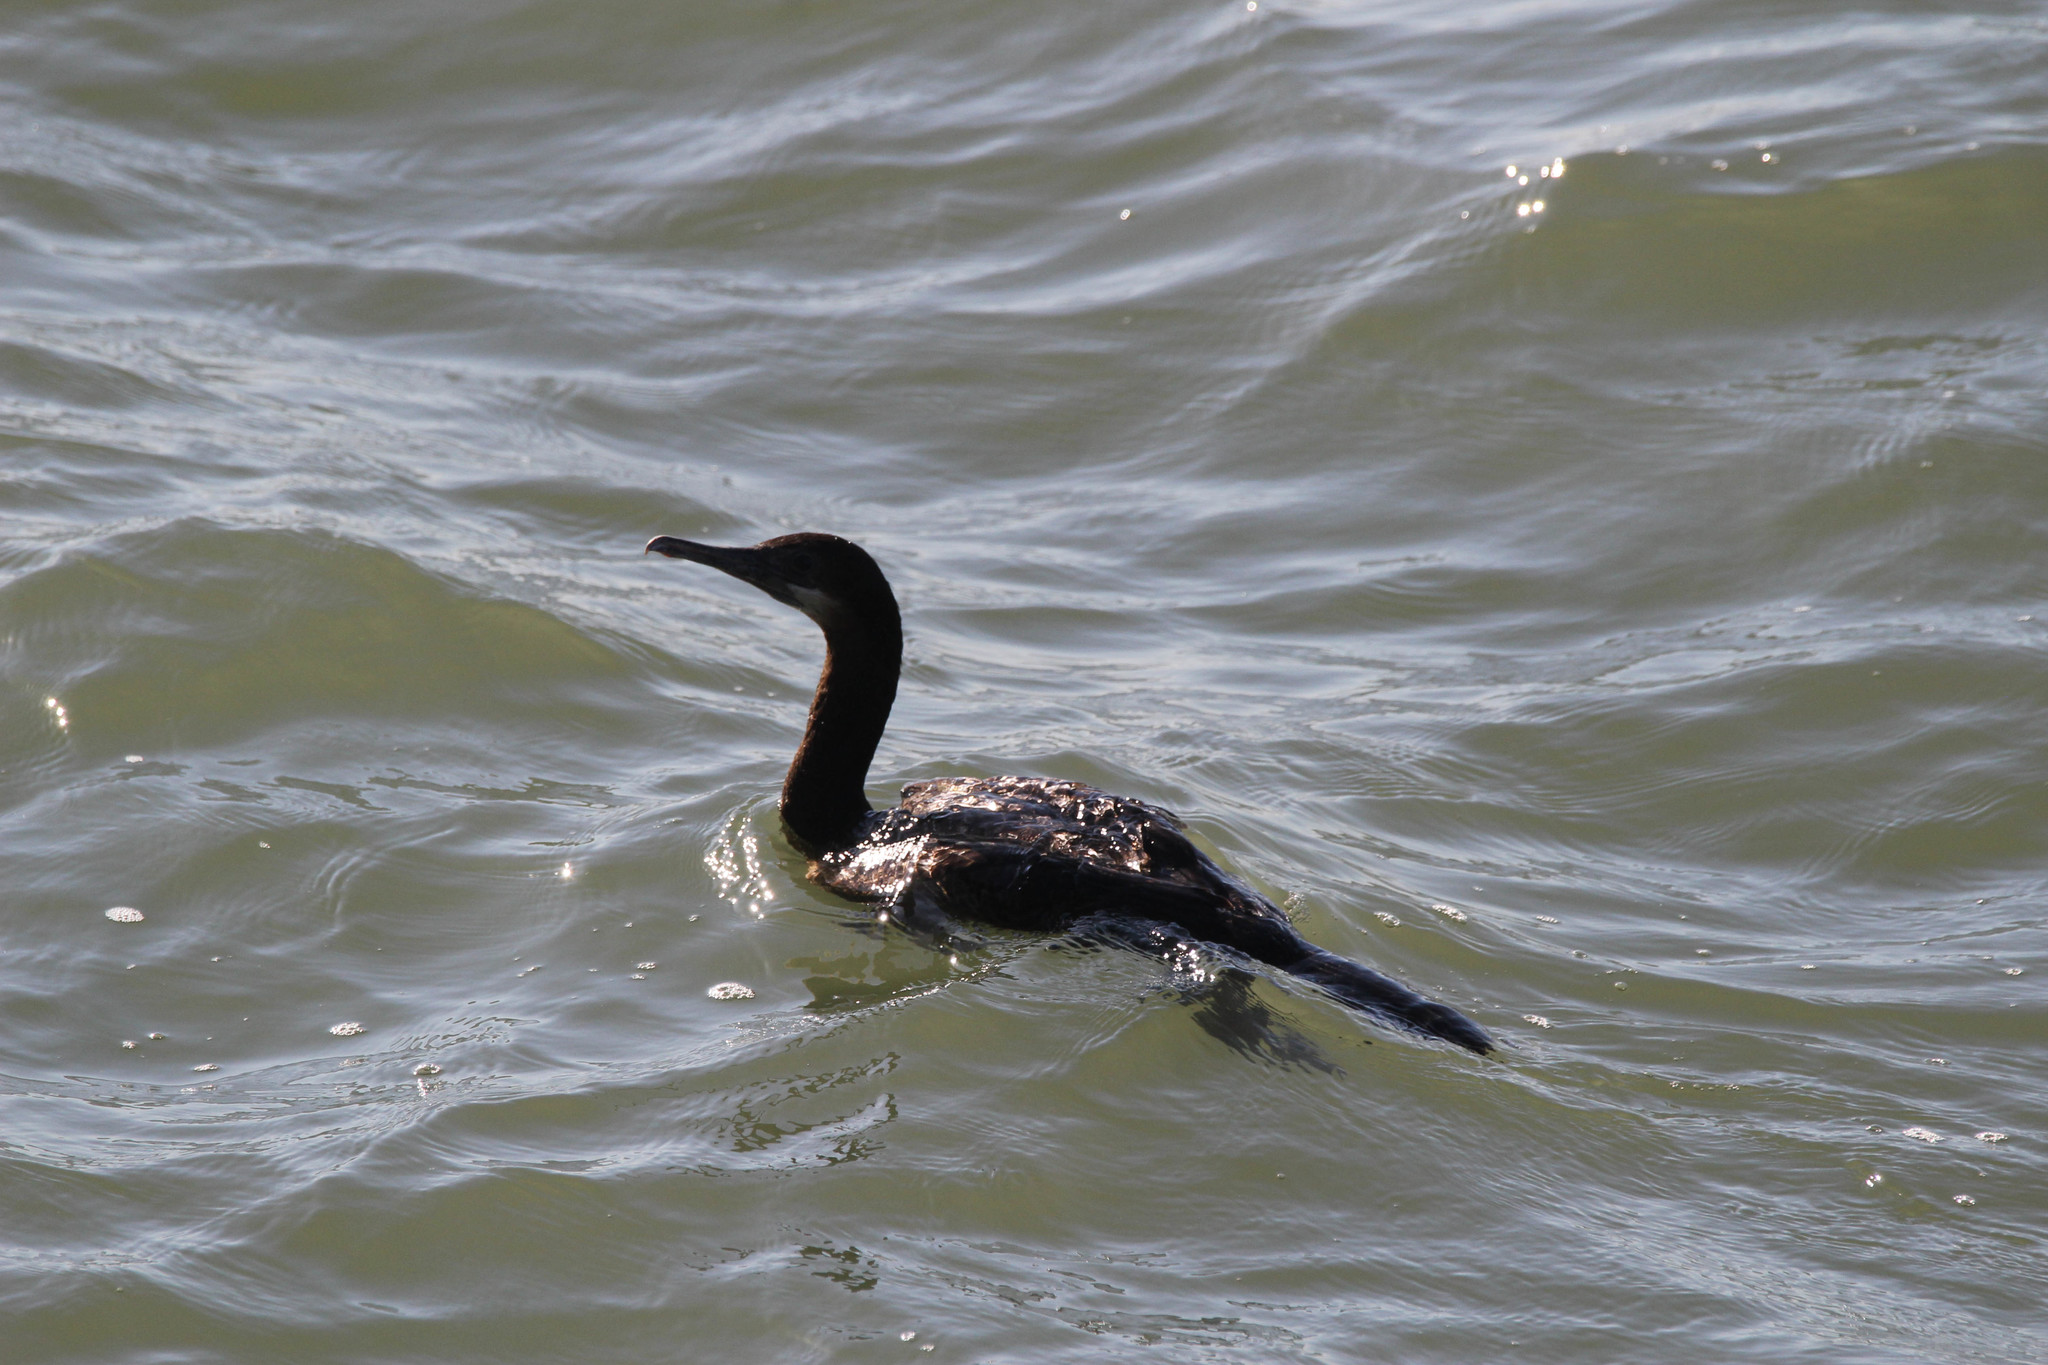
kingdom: Animalia
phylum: Chordata
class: Aves
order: Suliformes
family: Phalacrocoracidae
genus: Urile
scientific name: Urile penicillatus
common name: Brandt's cormorant
